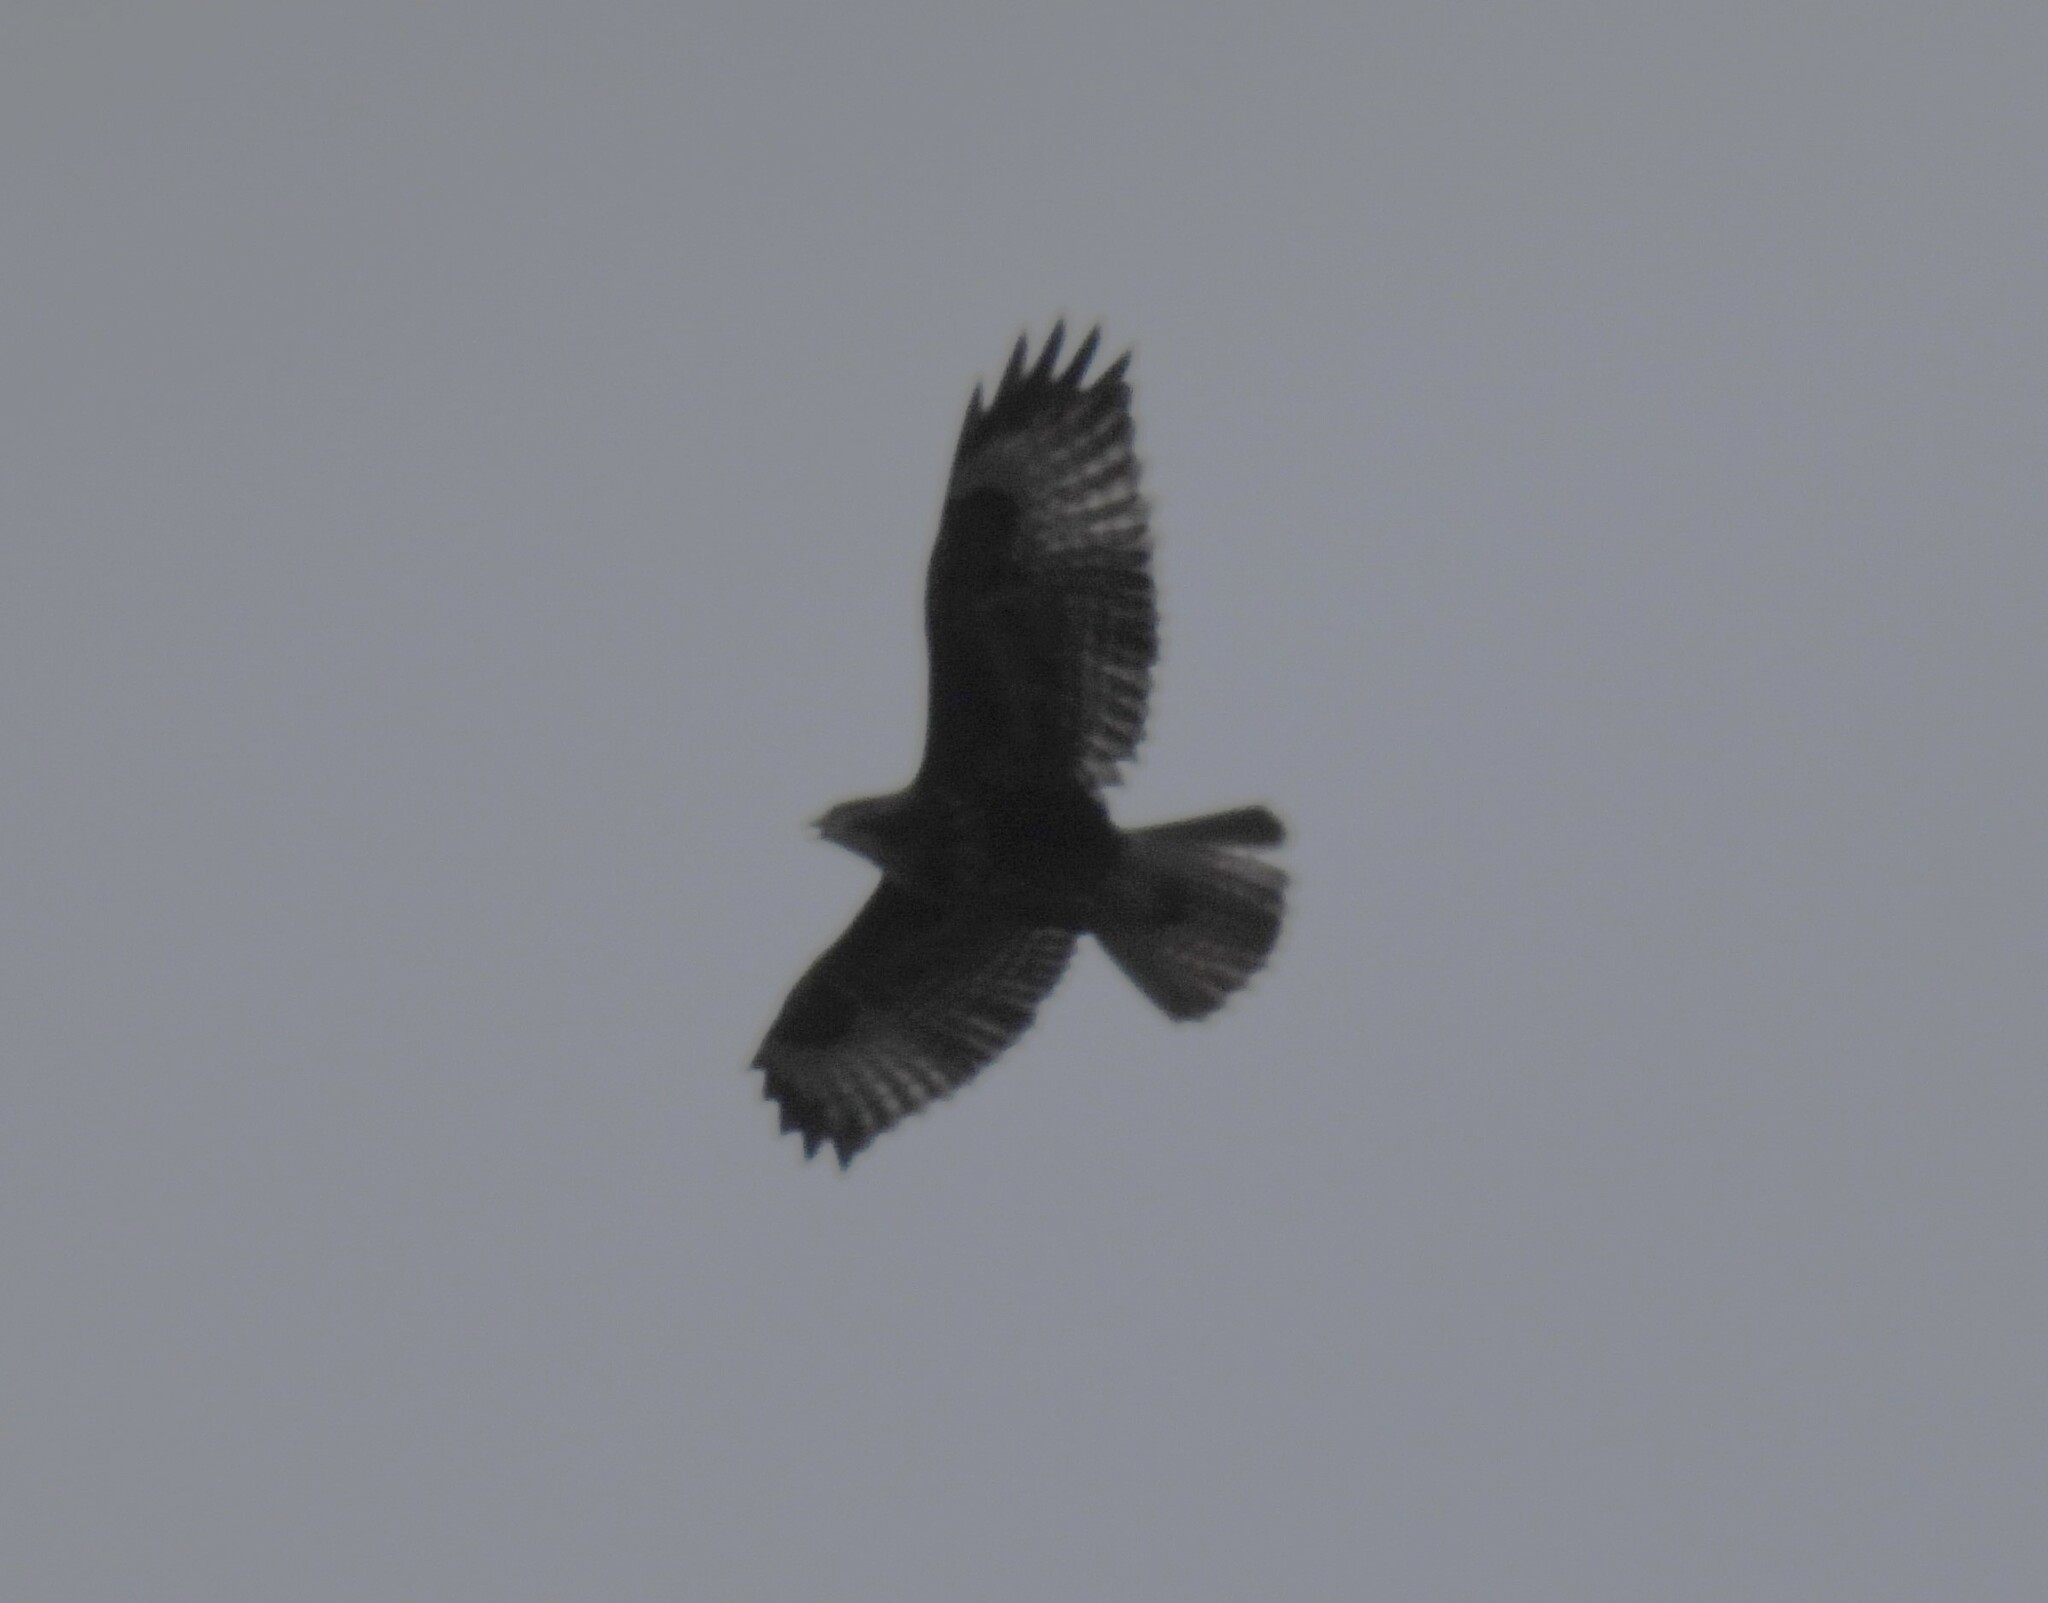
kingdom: Animalia
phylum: Chordata
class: Aves
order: Accipitriformes
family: Accipitridae
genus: Buteo
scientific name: Buteo buteo
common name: Common buzzard
